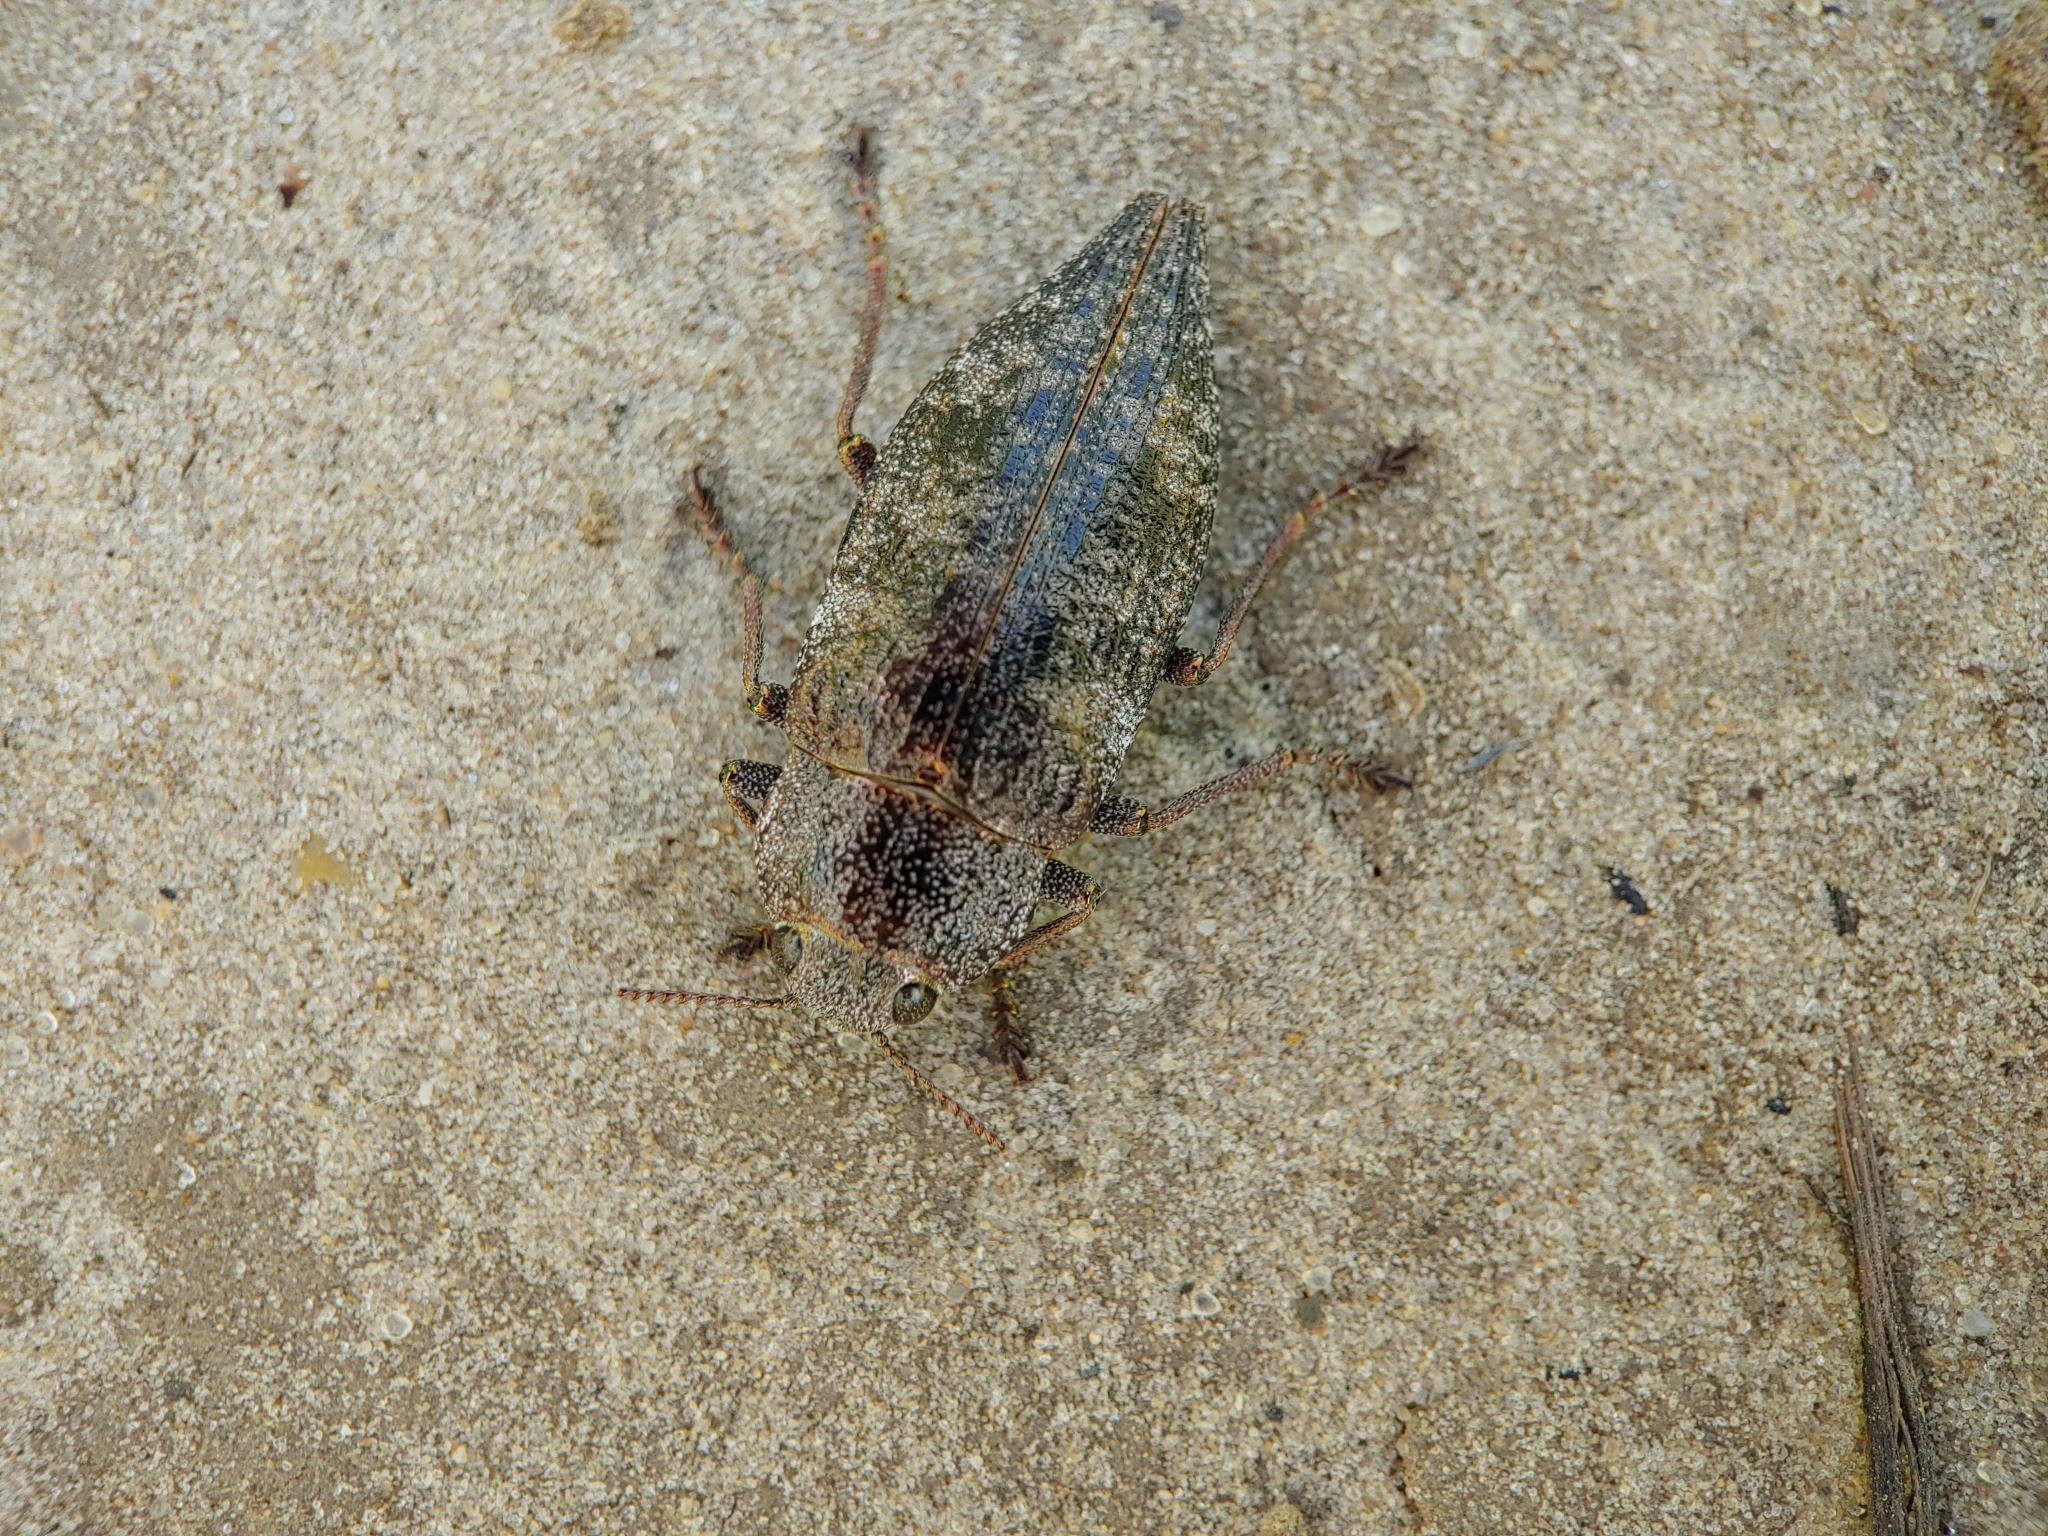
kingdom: Animalia
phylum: Arthropoda
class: Insecta
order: Coleoptera
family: Buprestidae
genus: Dicerca
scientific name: Dicerca aenea
